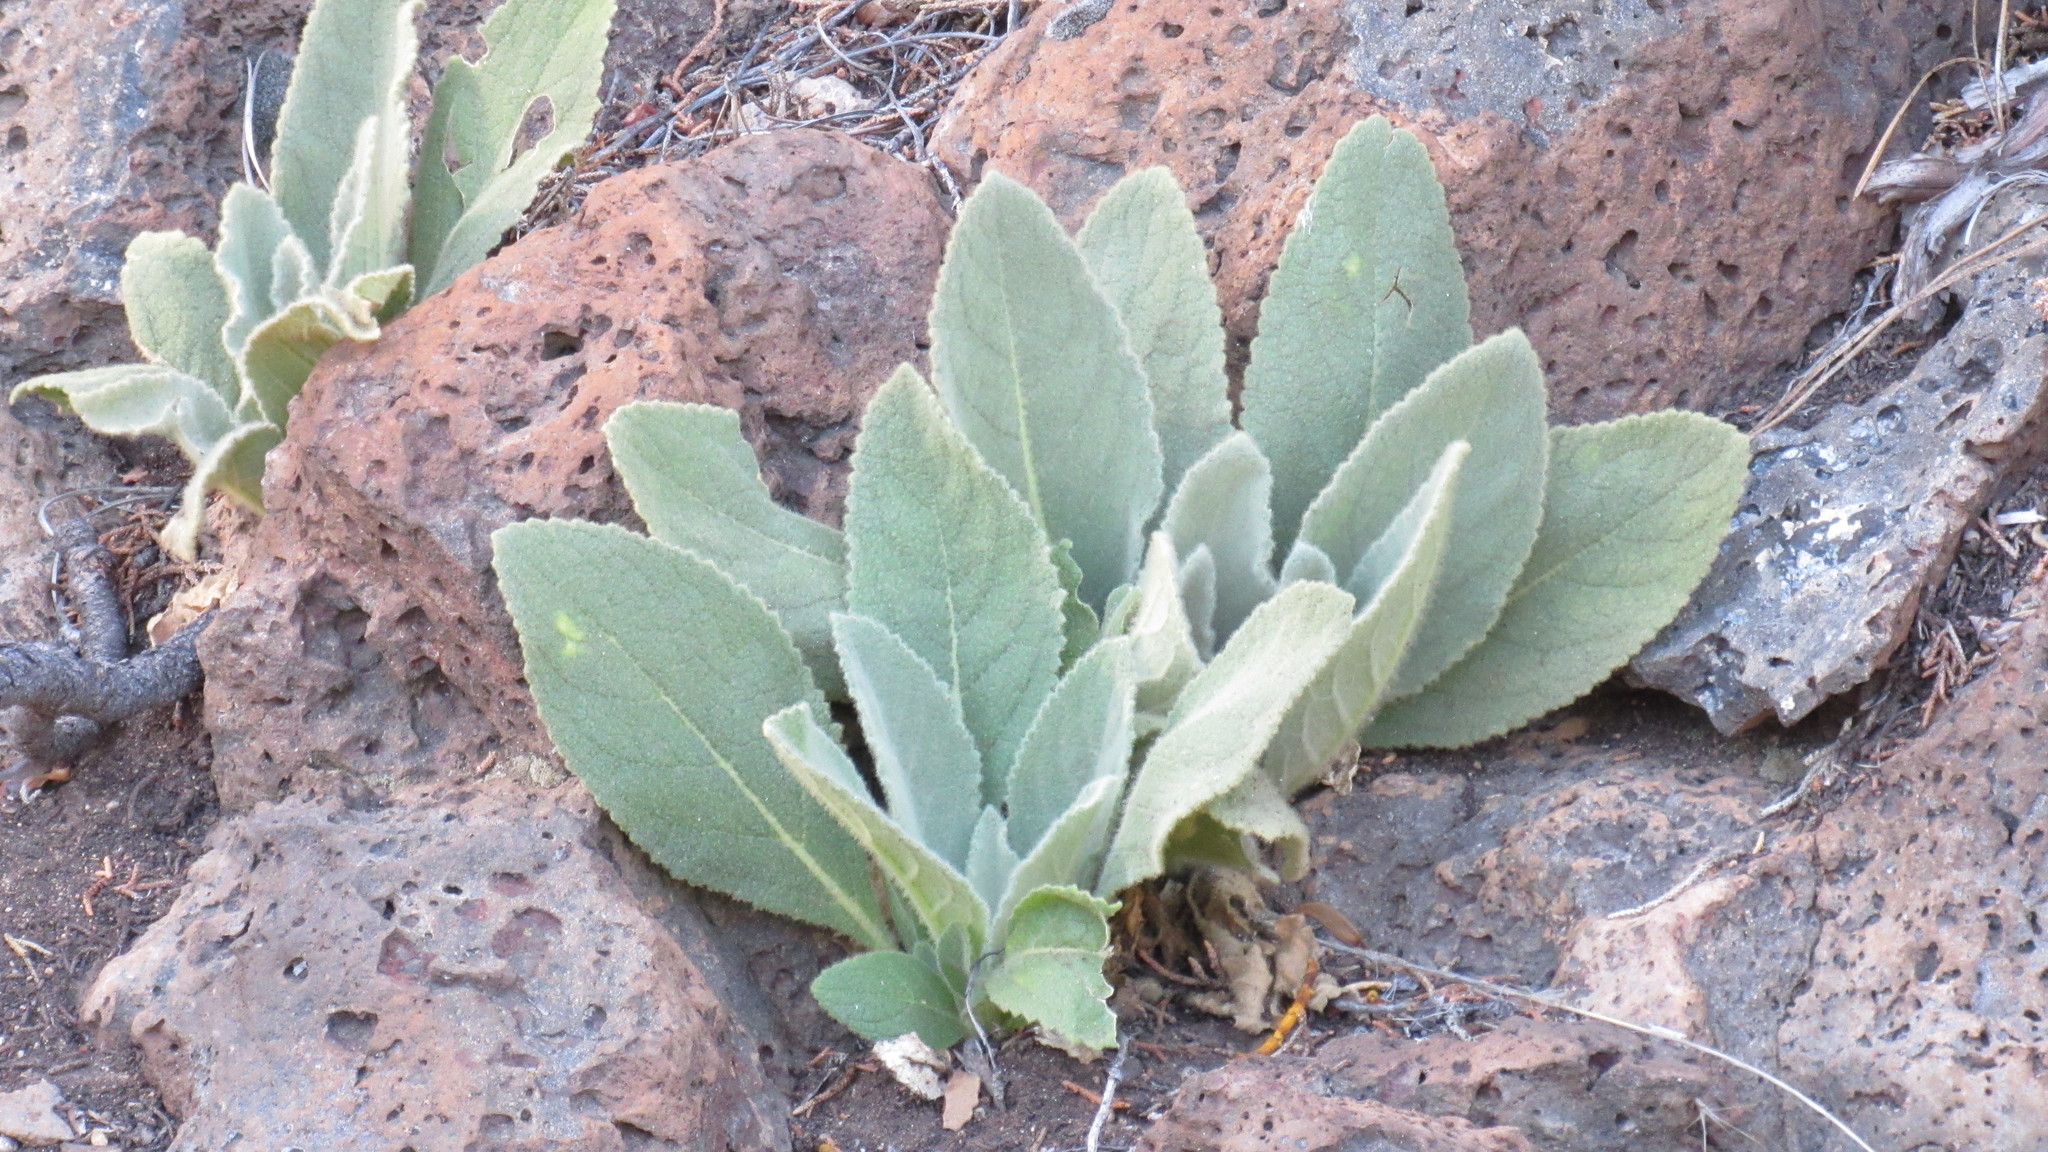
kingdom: Plantae
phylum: Tracheophyta
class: Magnoliopsida
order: Lamiales
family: Scrophulariaceae
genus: Verbascum
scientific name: Verbascum thapsus
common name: Common mullein
